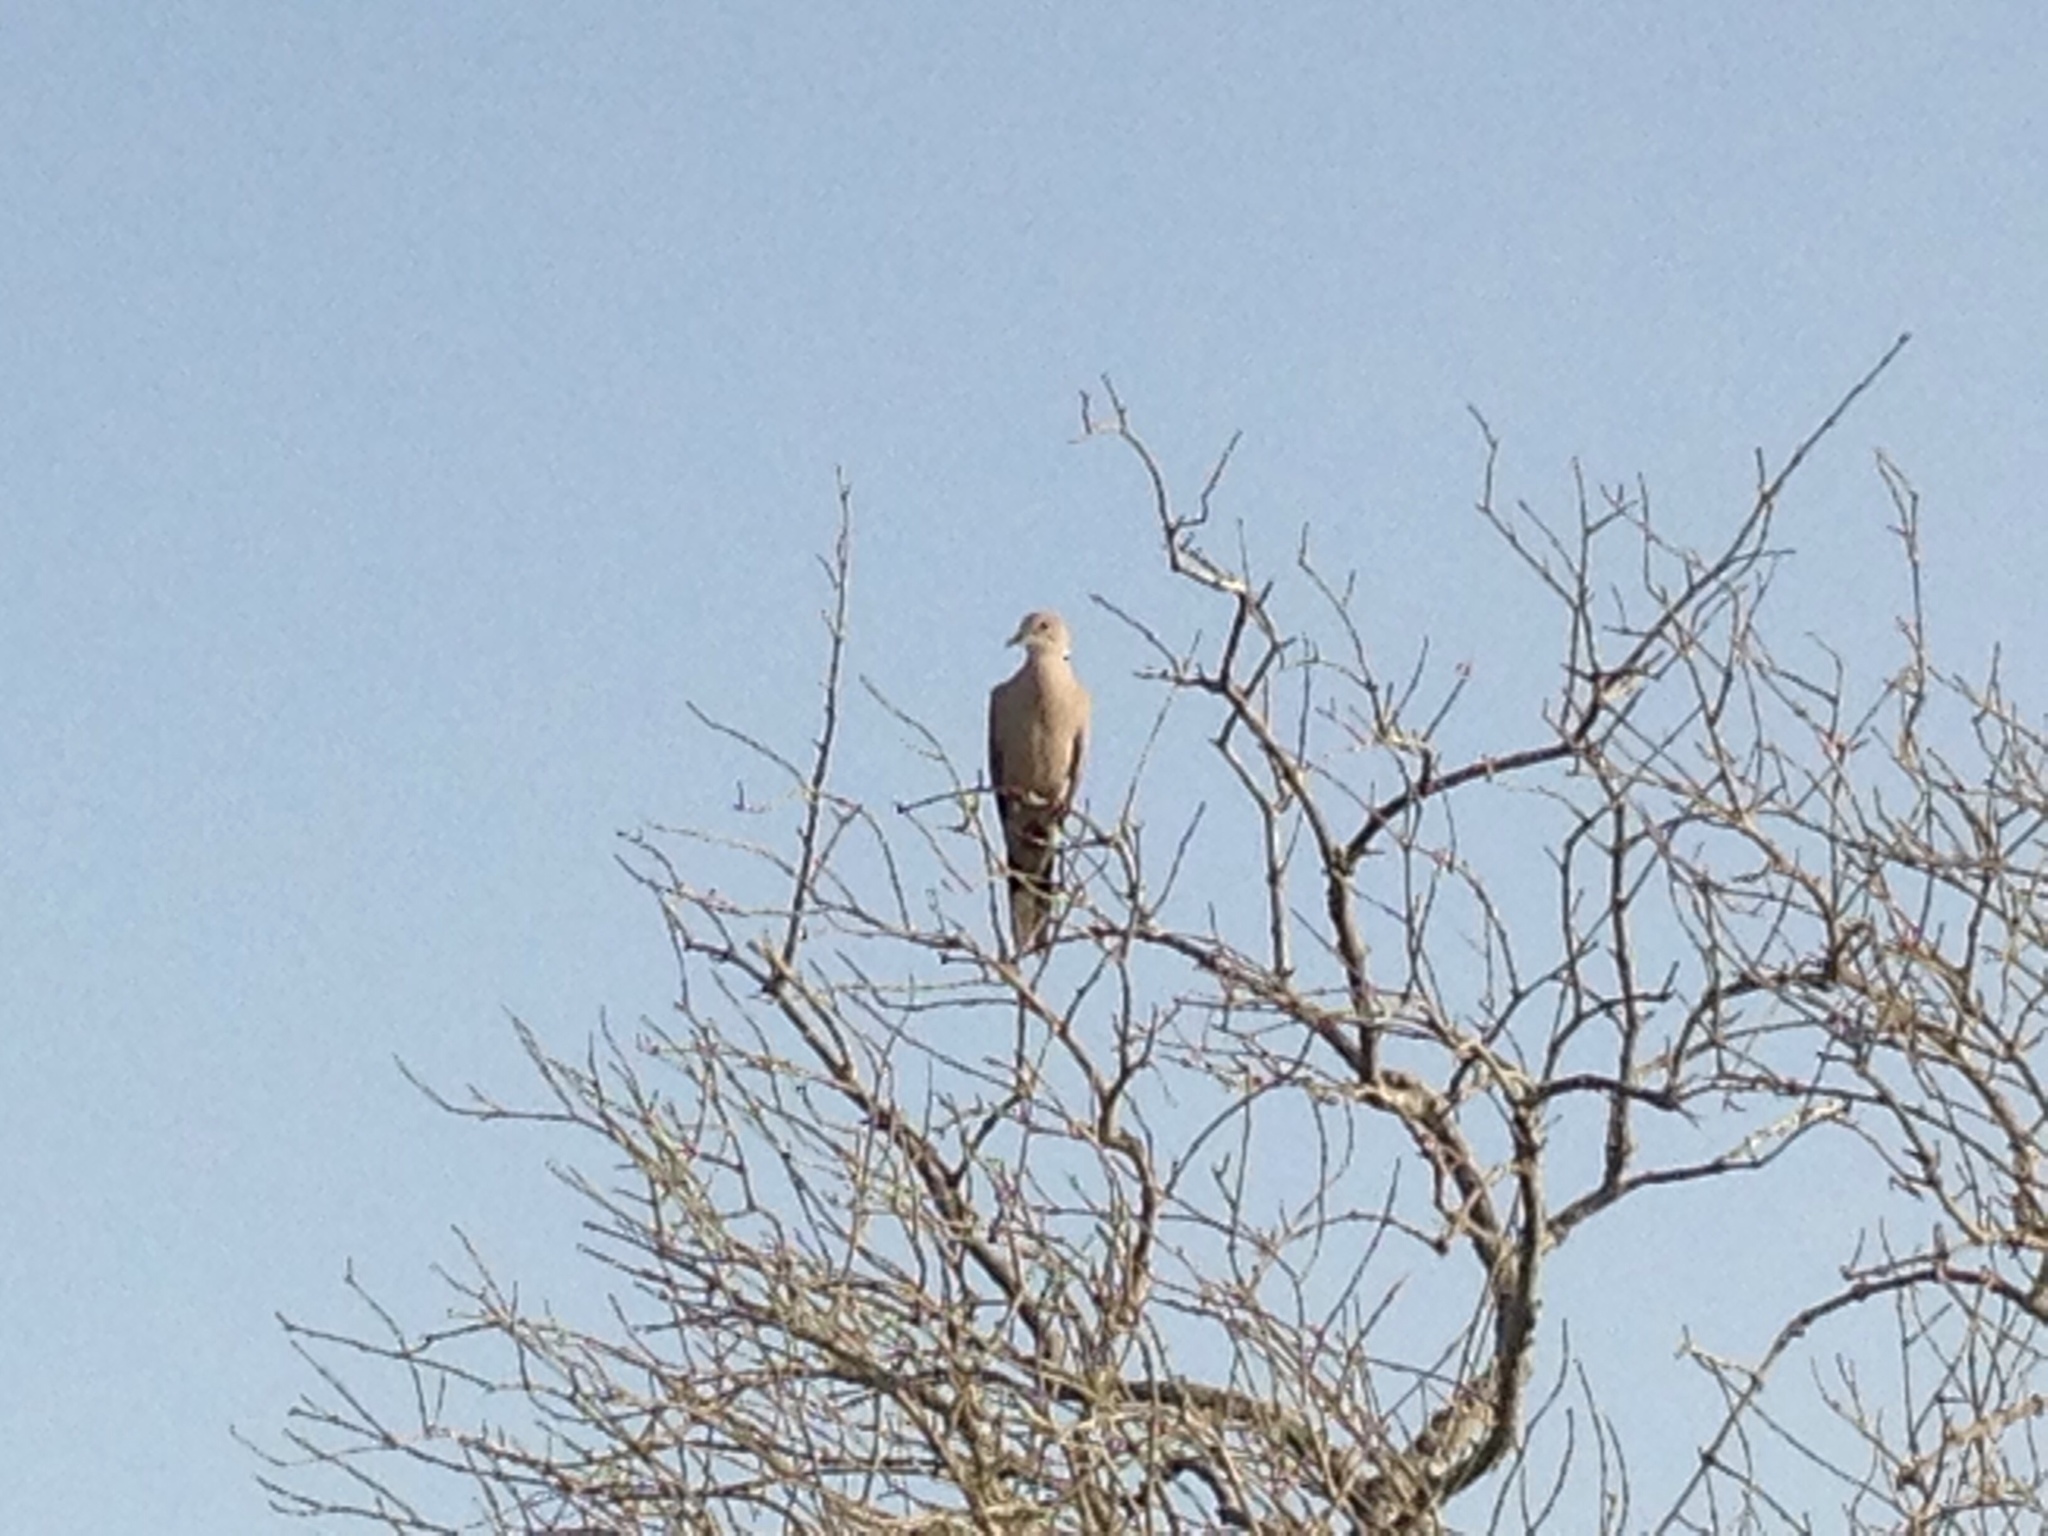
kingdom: Animalia
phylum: Chordata
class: Aves
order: Columbiformes
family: Columbidae
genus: Streptopelia
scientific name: Streptopelia decaocto
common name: Eurasian collared dove
